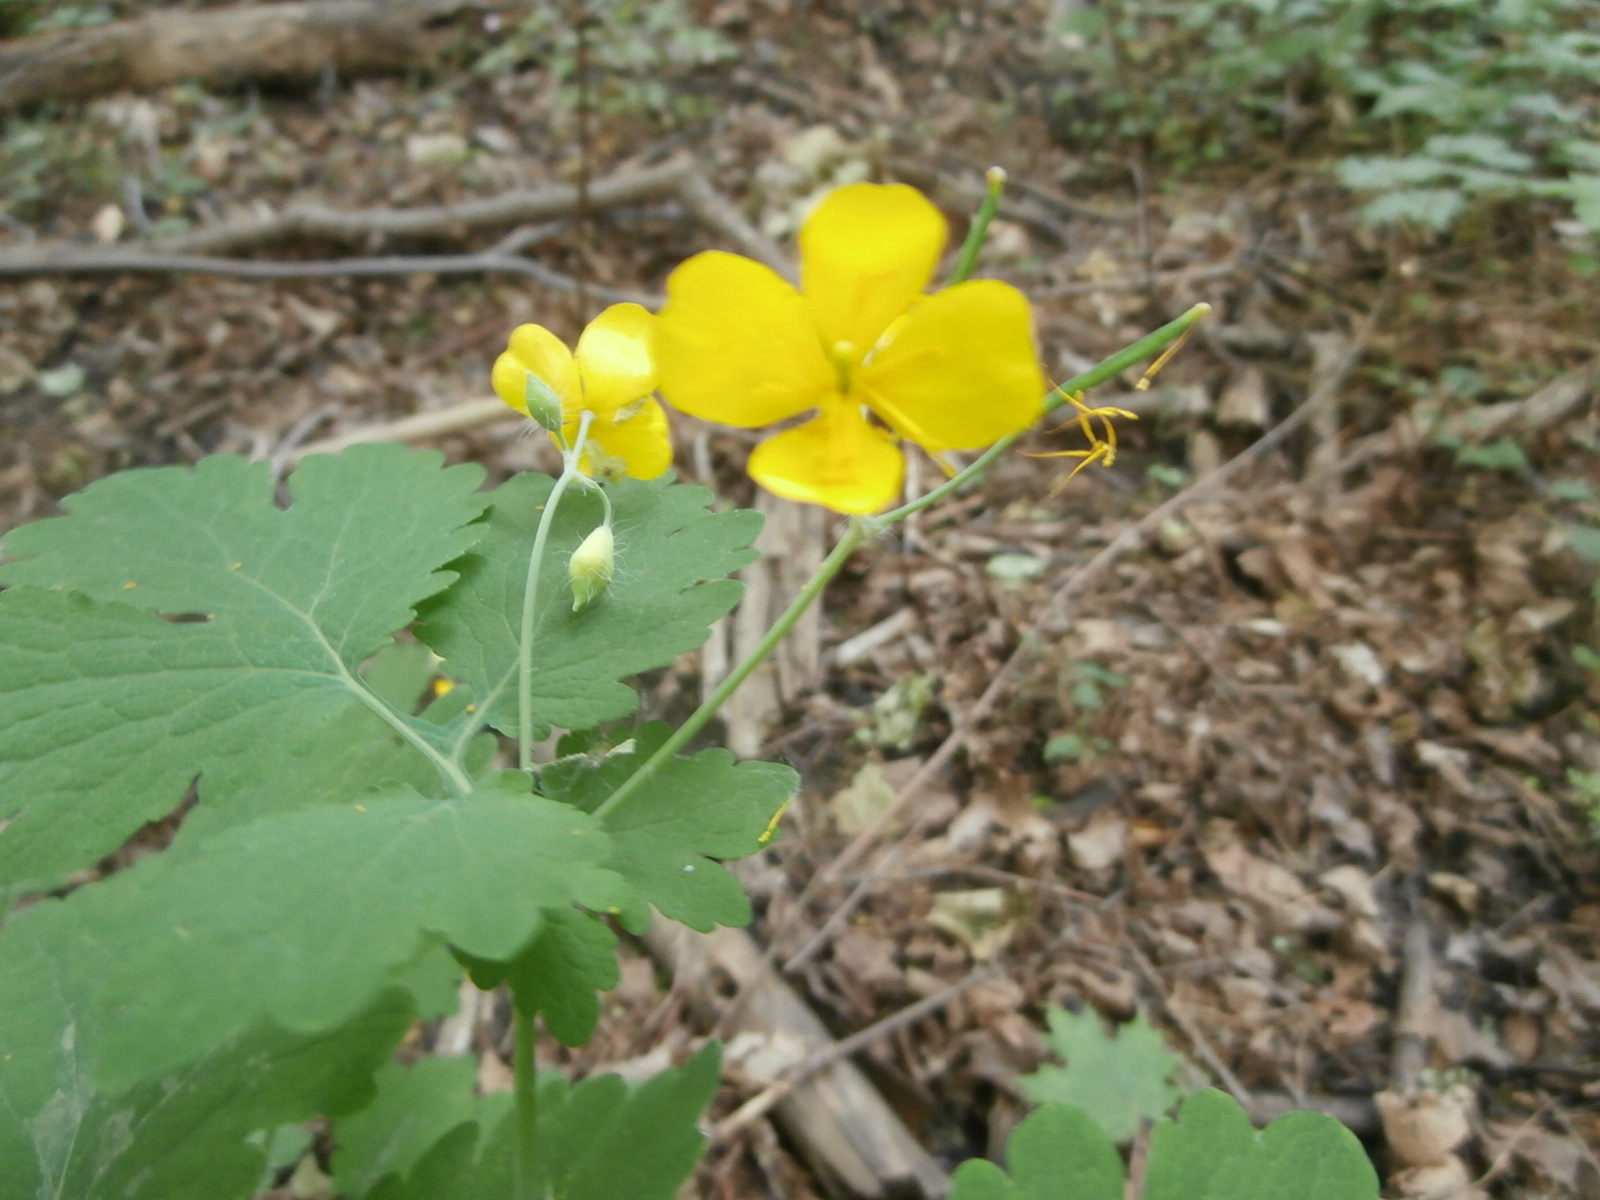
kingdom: Plantae
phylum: Tracheophyta
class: Magnoliopsida
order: Ranunculales
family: Papaveraceae
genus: Chelidonium
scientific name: Chelidonium majus
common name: Greater celandine
